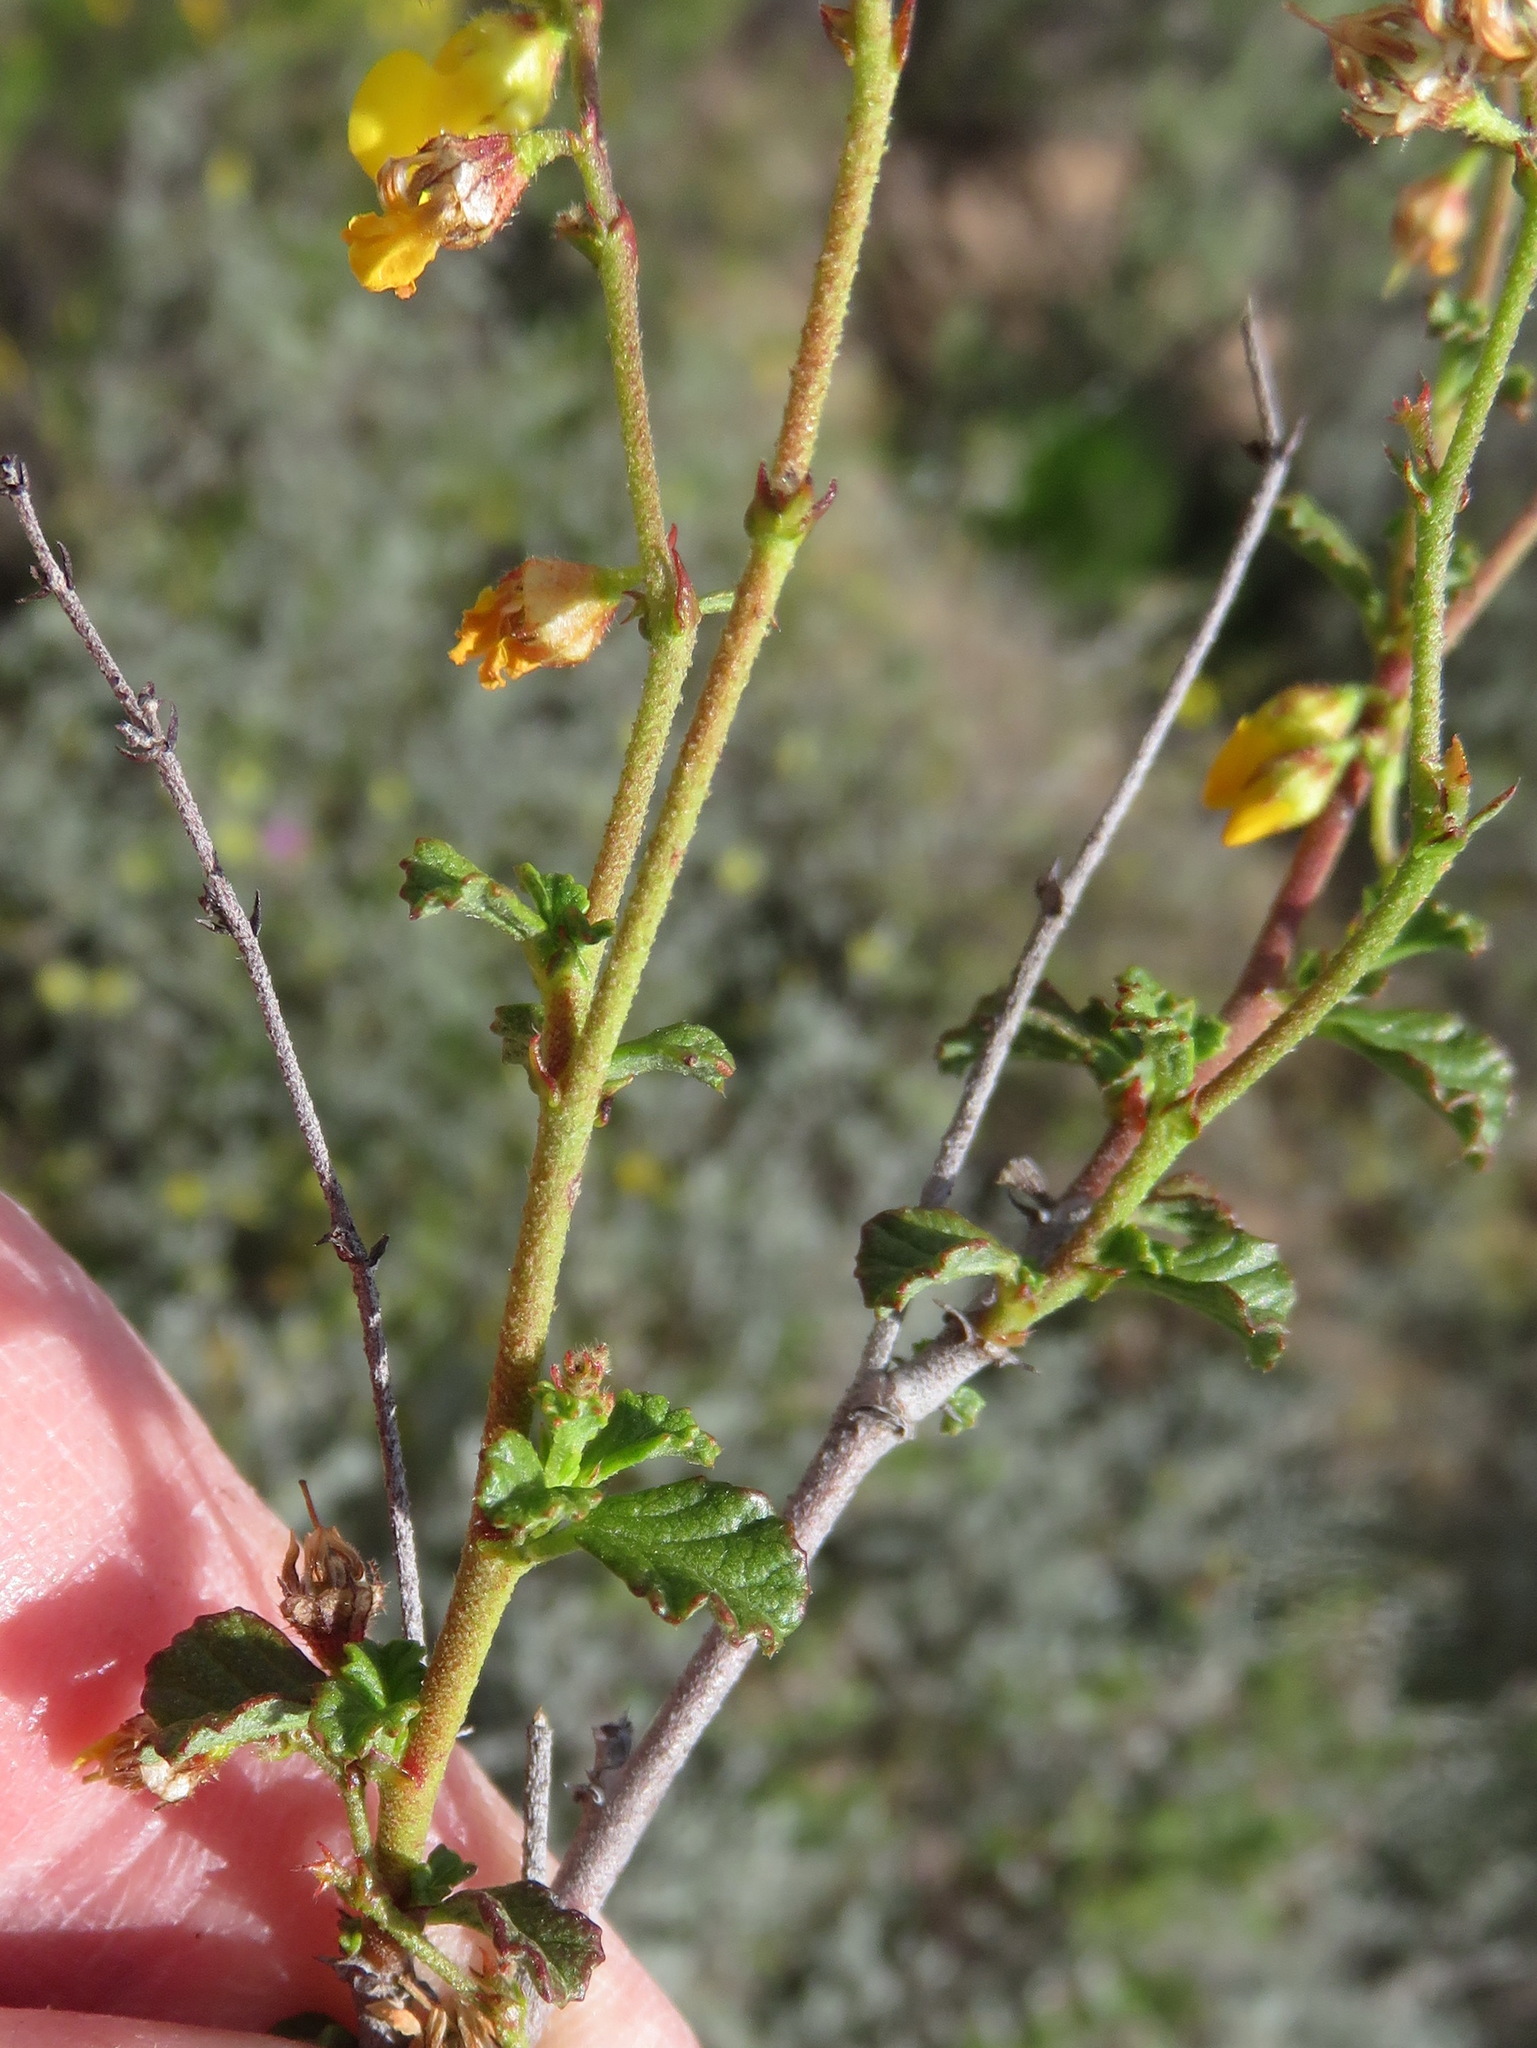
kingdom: Plantae
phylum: Tracheophyta
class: Magnoliopsida
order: Malvales
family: Malvaceae
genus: Hermannia
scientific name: Hermannia alnifolia
